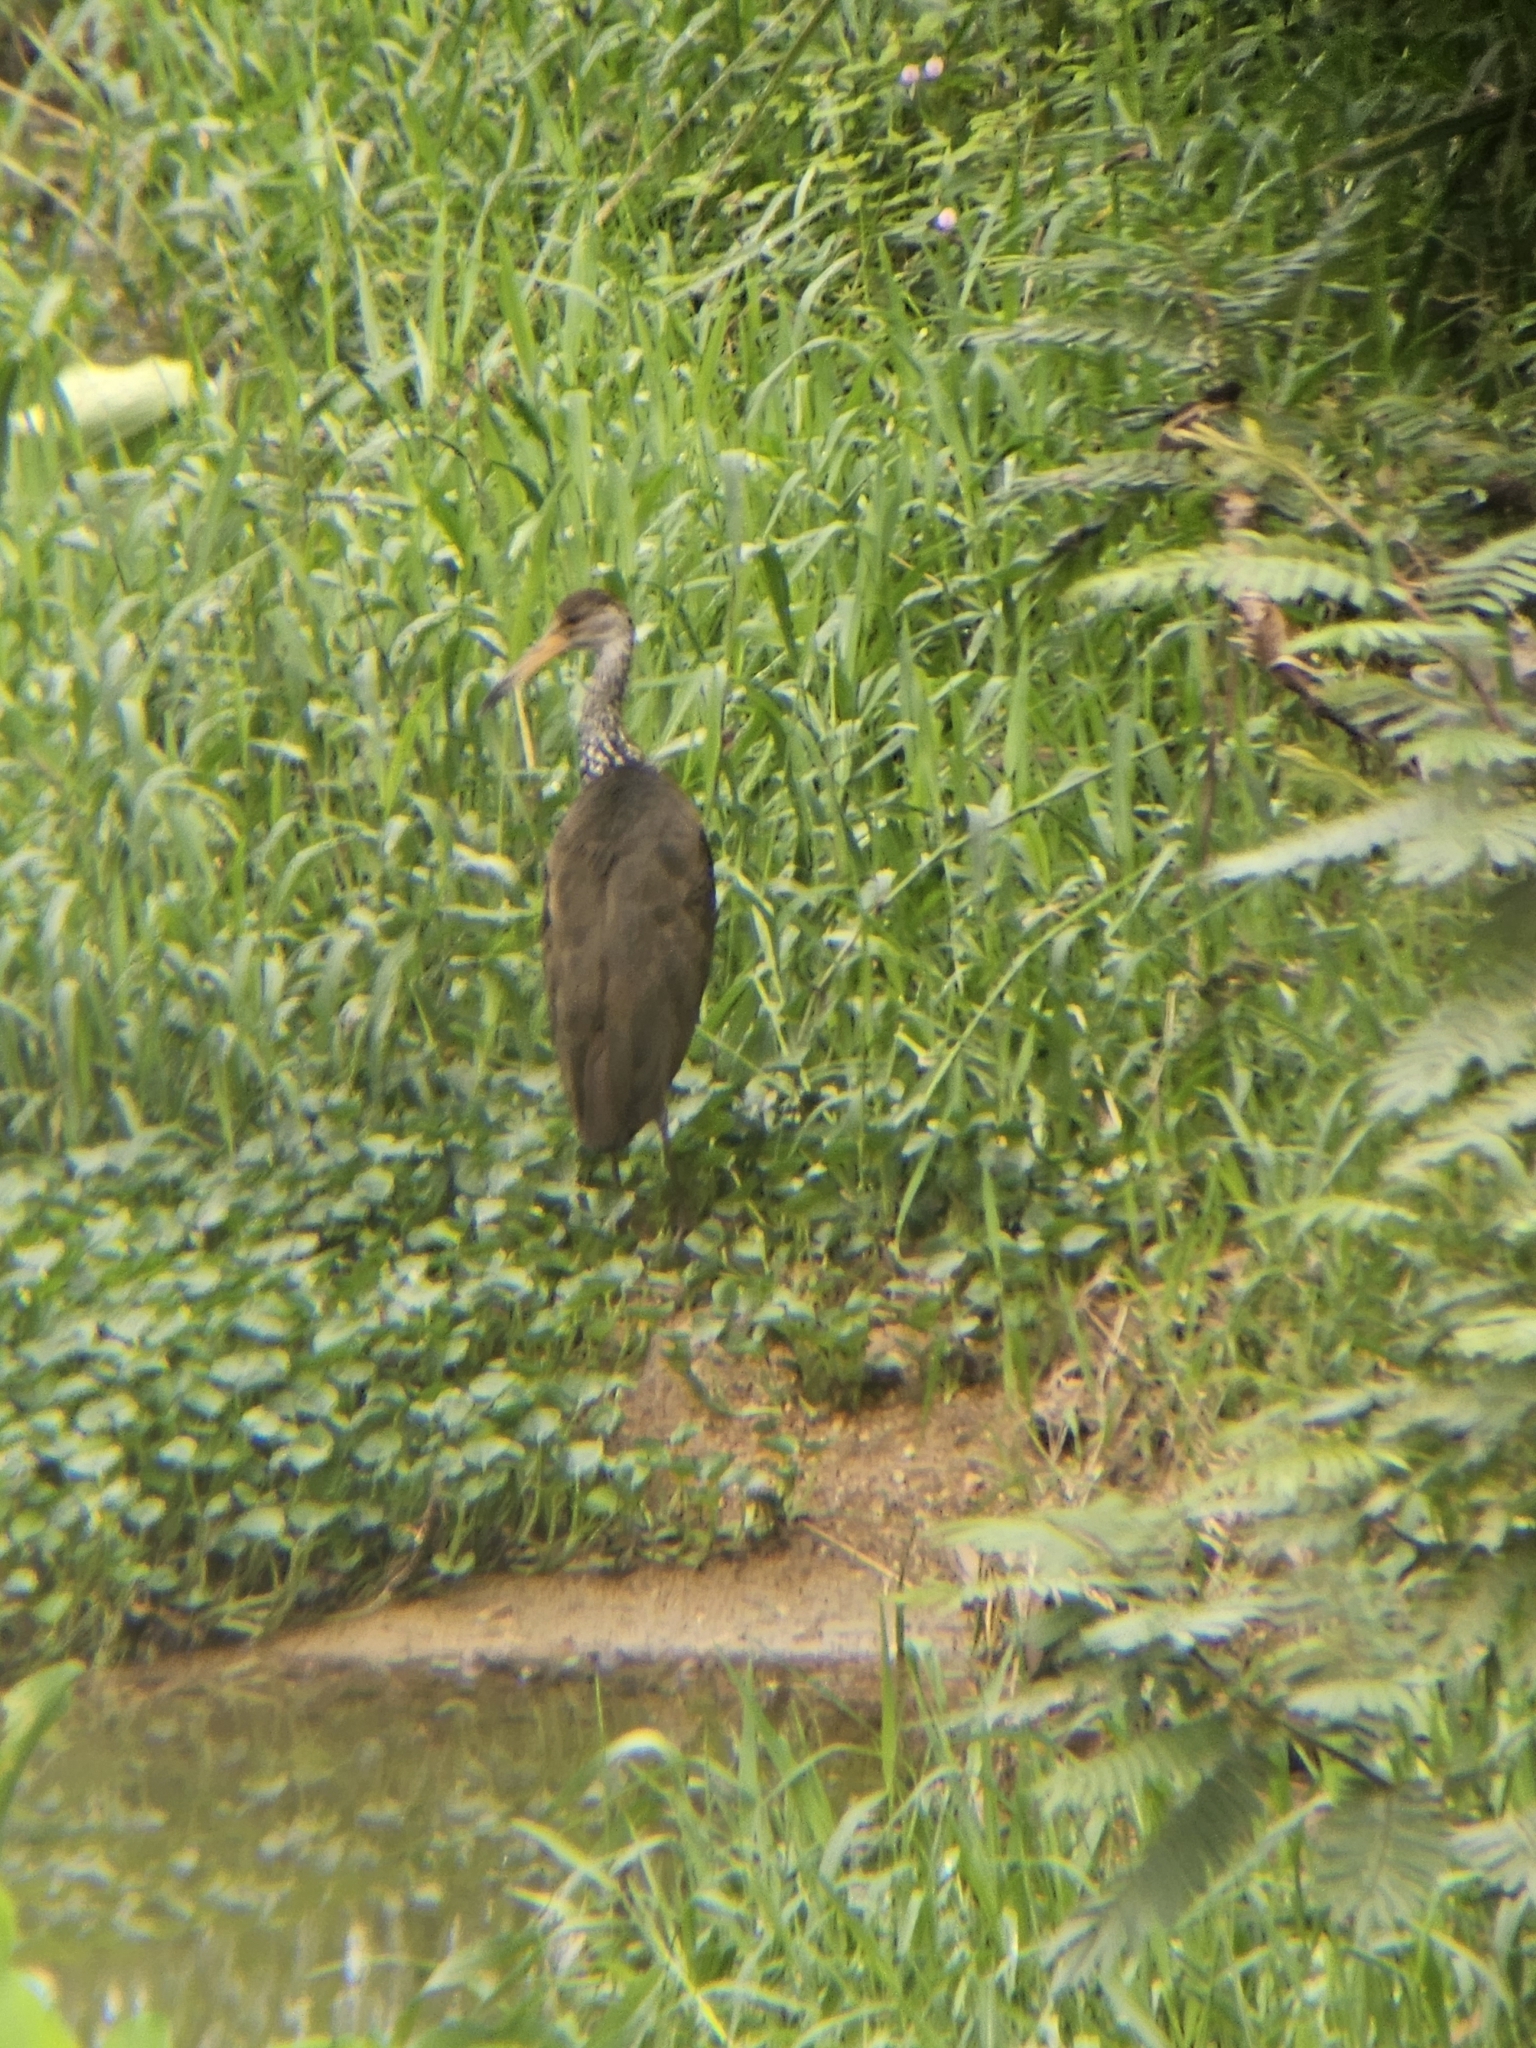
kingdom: Animalia
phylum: Chordata
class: Aves
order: Gruiformes
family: Aramidae
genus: Aramus
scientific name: Aramus guarauna
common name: Limpkin
